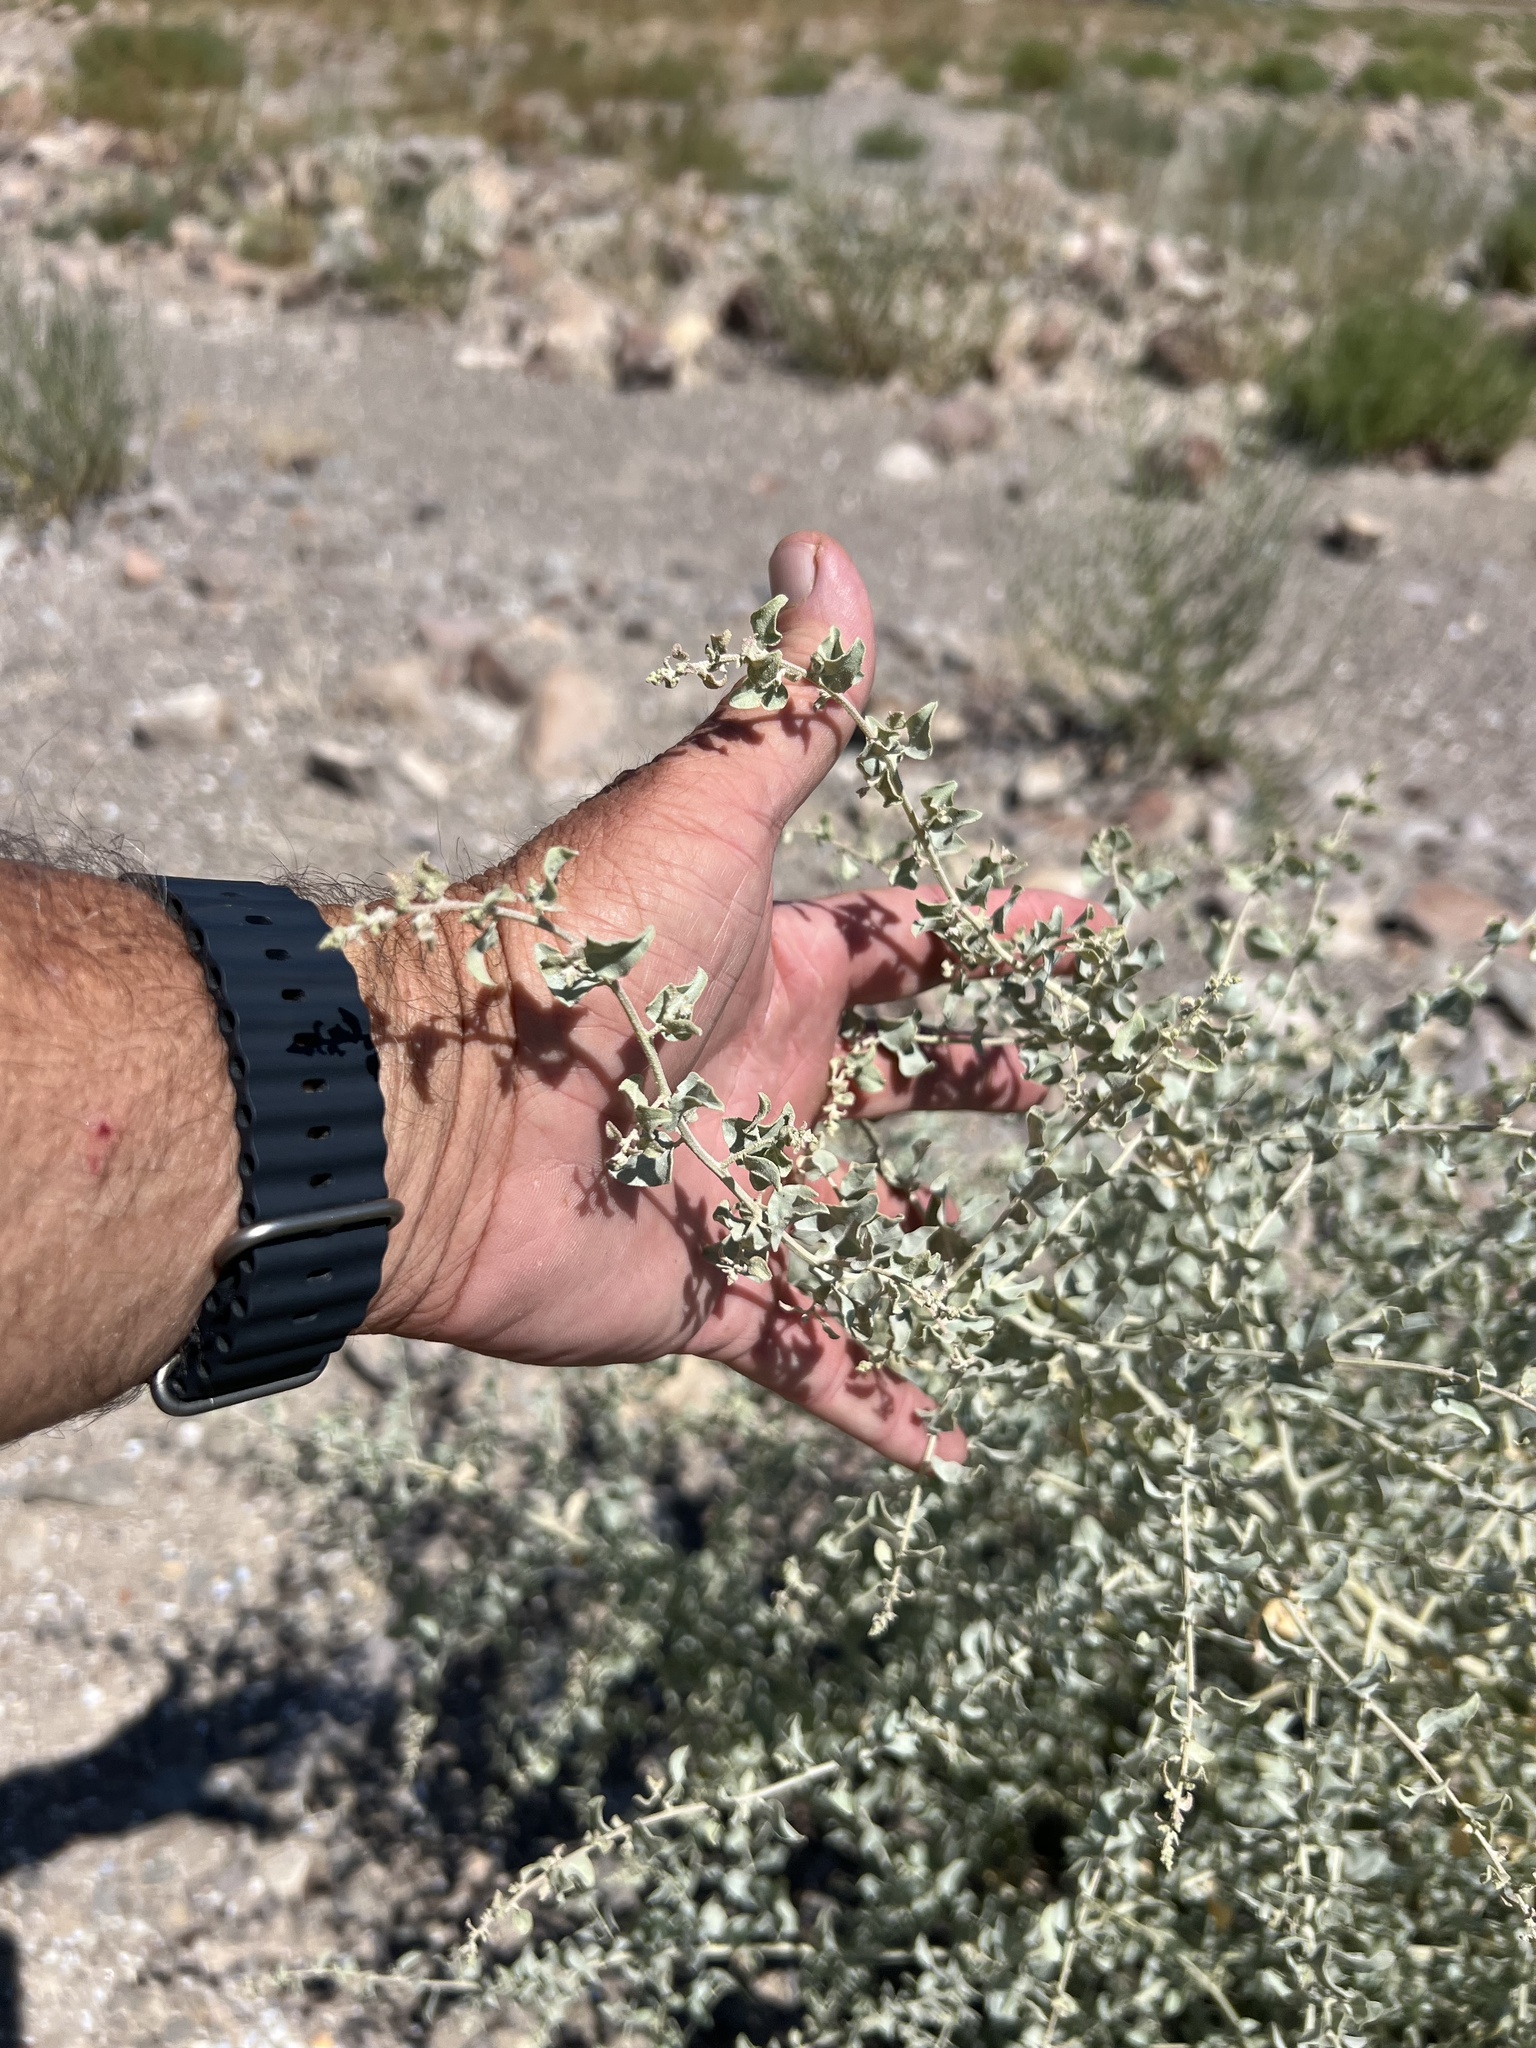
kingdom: Plantae
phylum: Tracheophyta
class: Magnoliopsida
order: Caryophyllales
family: Amaranthaceae
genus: Atriplex
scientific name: Atriplex lentiformis
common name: Big saltbush
